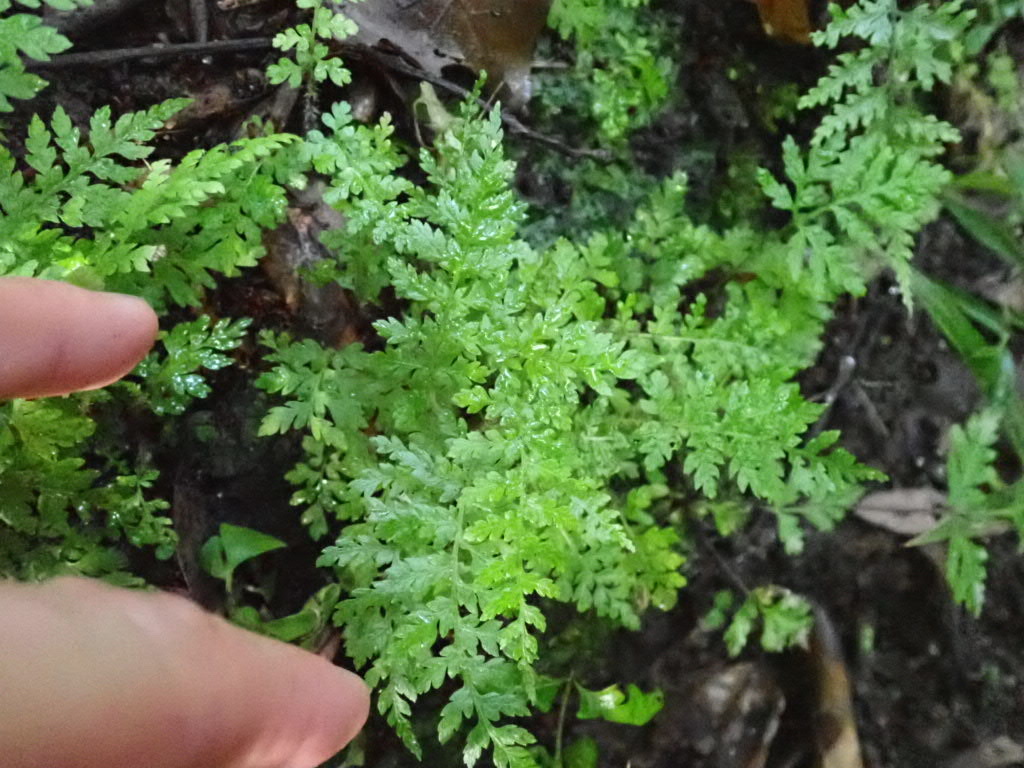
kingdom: Plantae
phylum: Tracheophyta
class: Polypodiopsida
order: Cyatheales
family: Cyatheaceae
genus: Sphaeropteris
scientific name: Sphaeropteris medullaris
